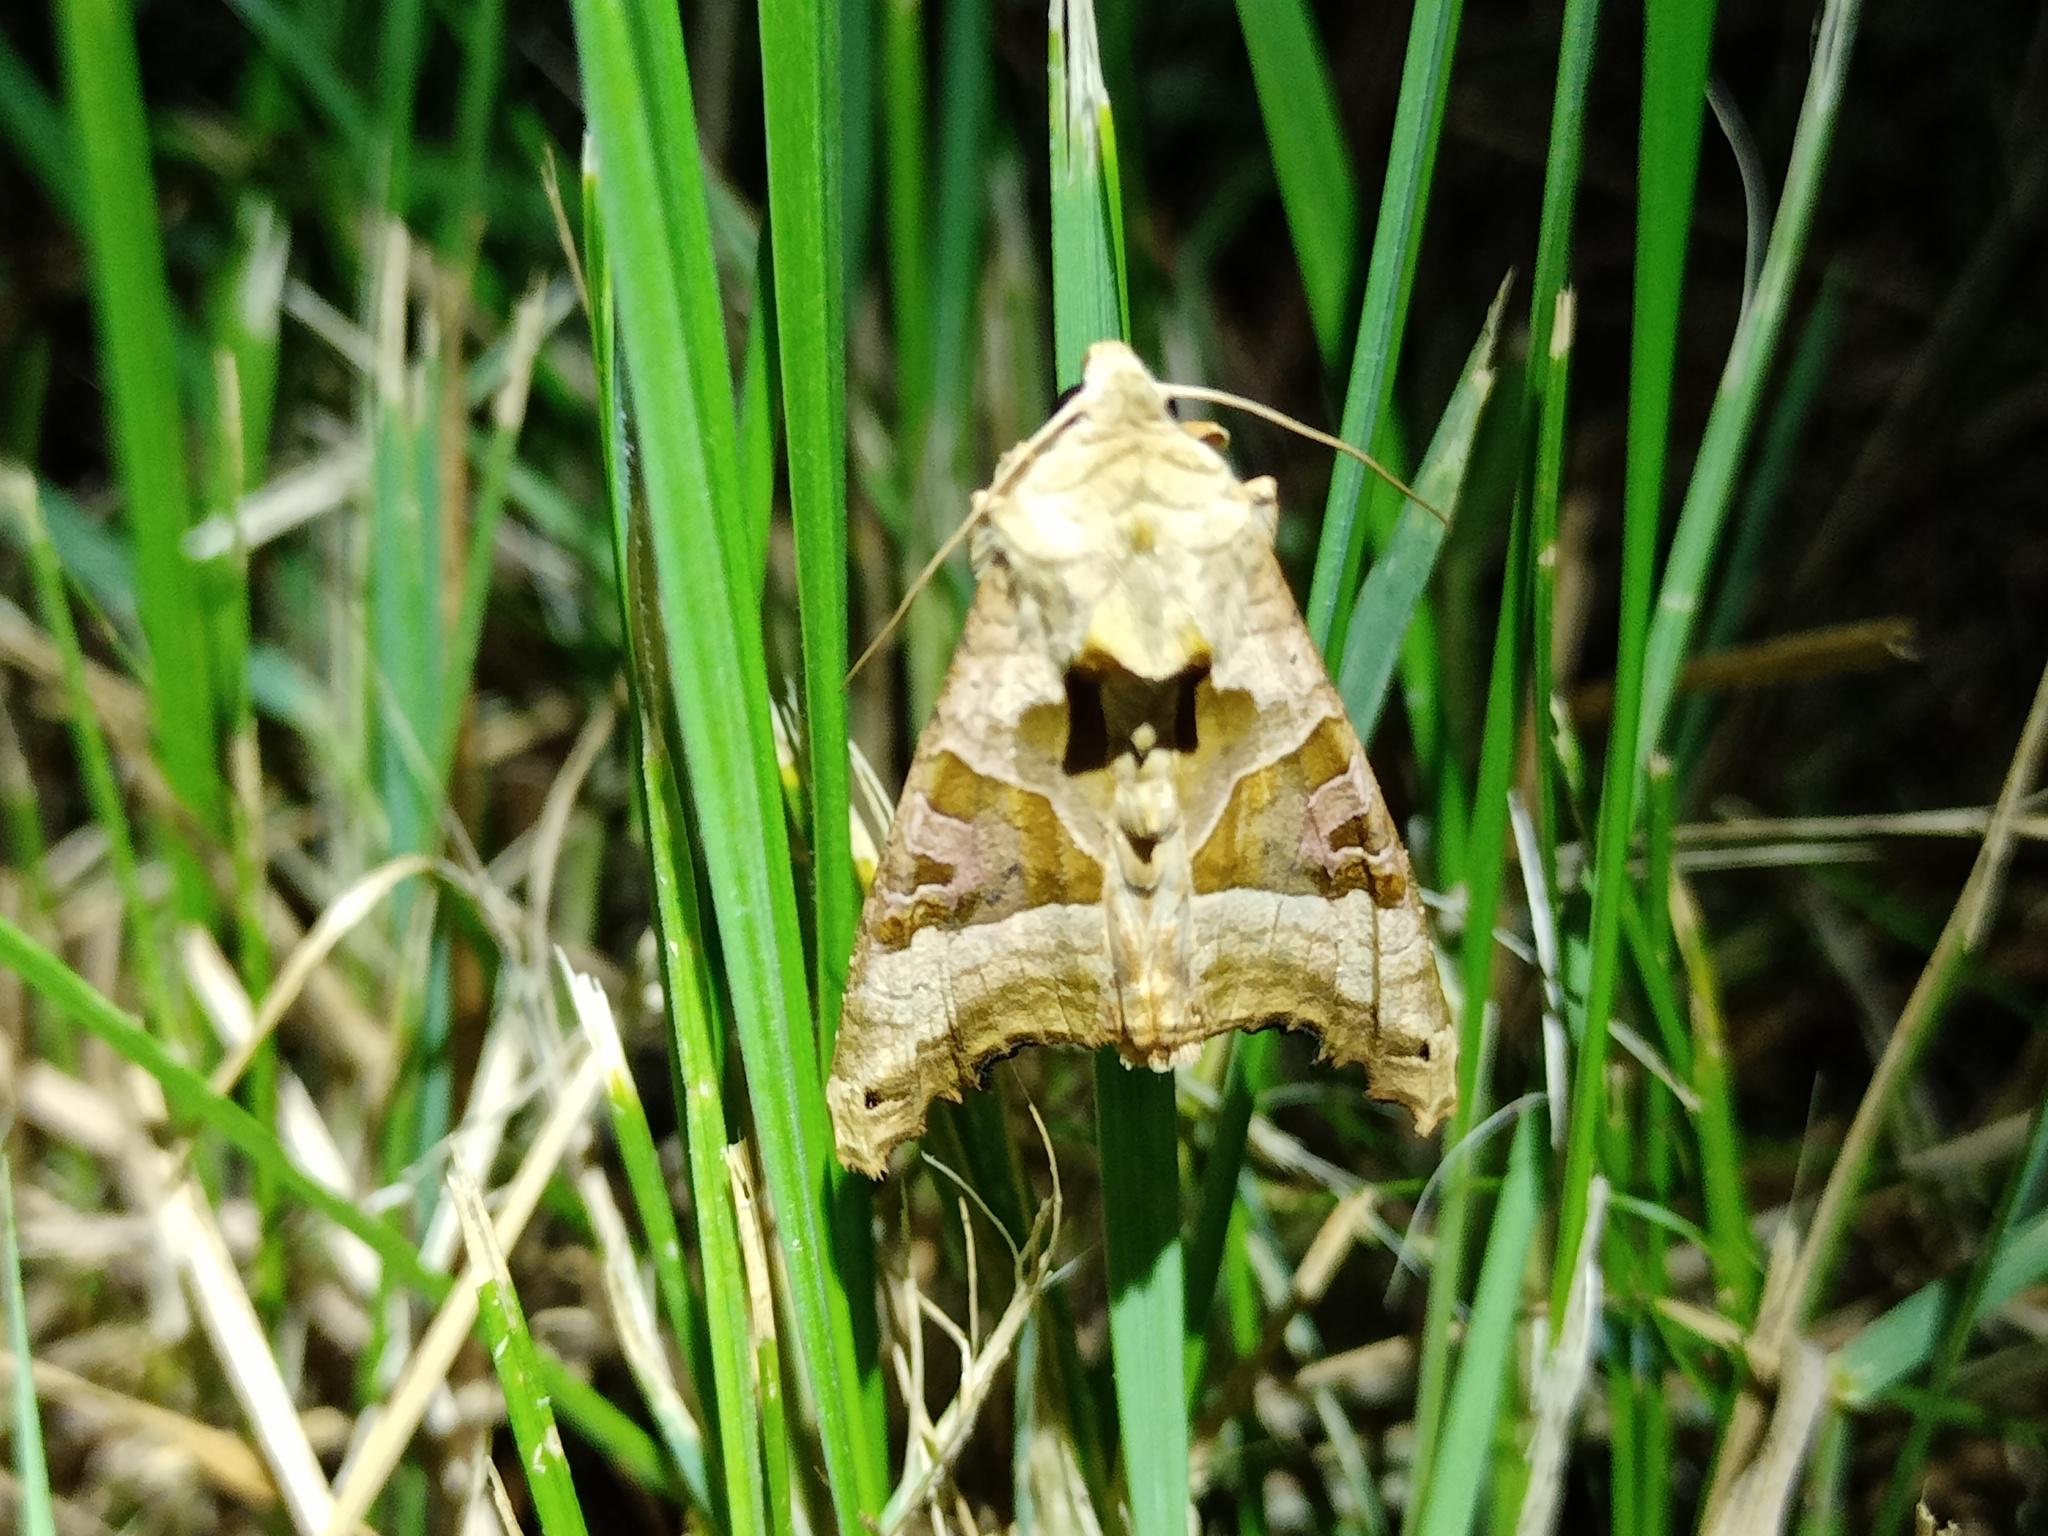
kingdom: Animalia
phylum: Arthropoda
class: Insecta
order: Lepidoptera
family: Noctuidae
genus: Phlogophora
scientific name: Phlogophora meticulosa
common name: Angle shades
